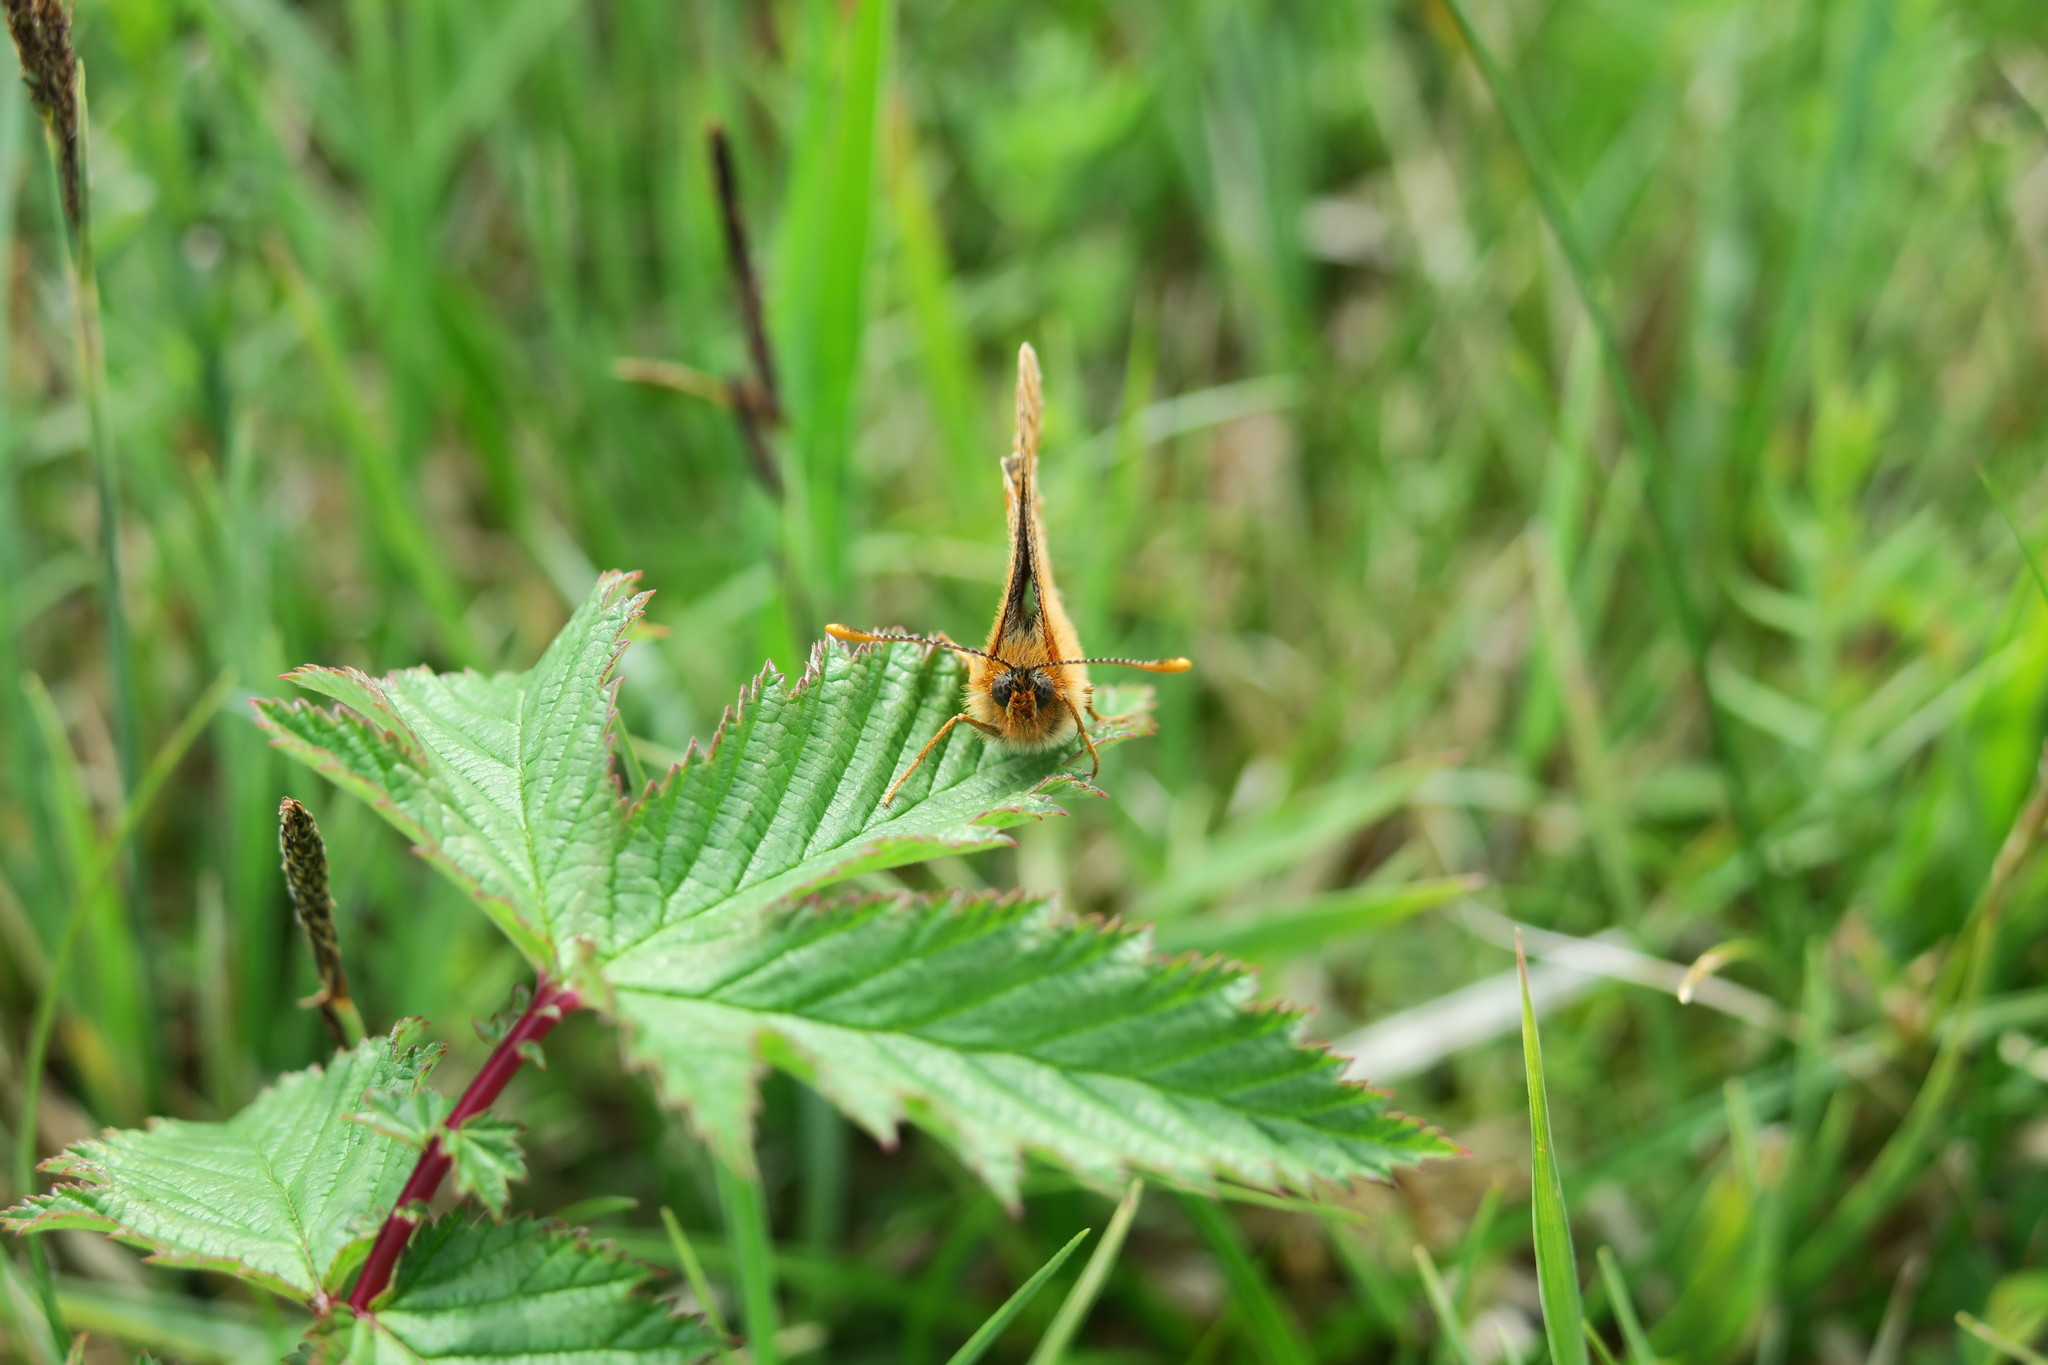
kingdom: Animalia
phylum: Arthropoda
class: Insecta
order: Lepidoptera
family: Nymphalidae
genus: Euphydryas
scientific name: Euphydryas aurinia
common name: Marsh fritillary
